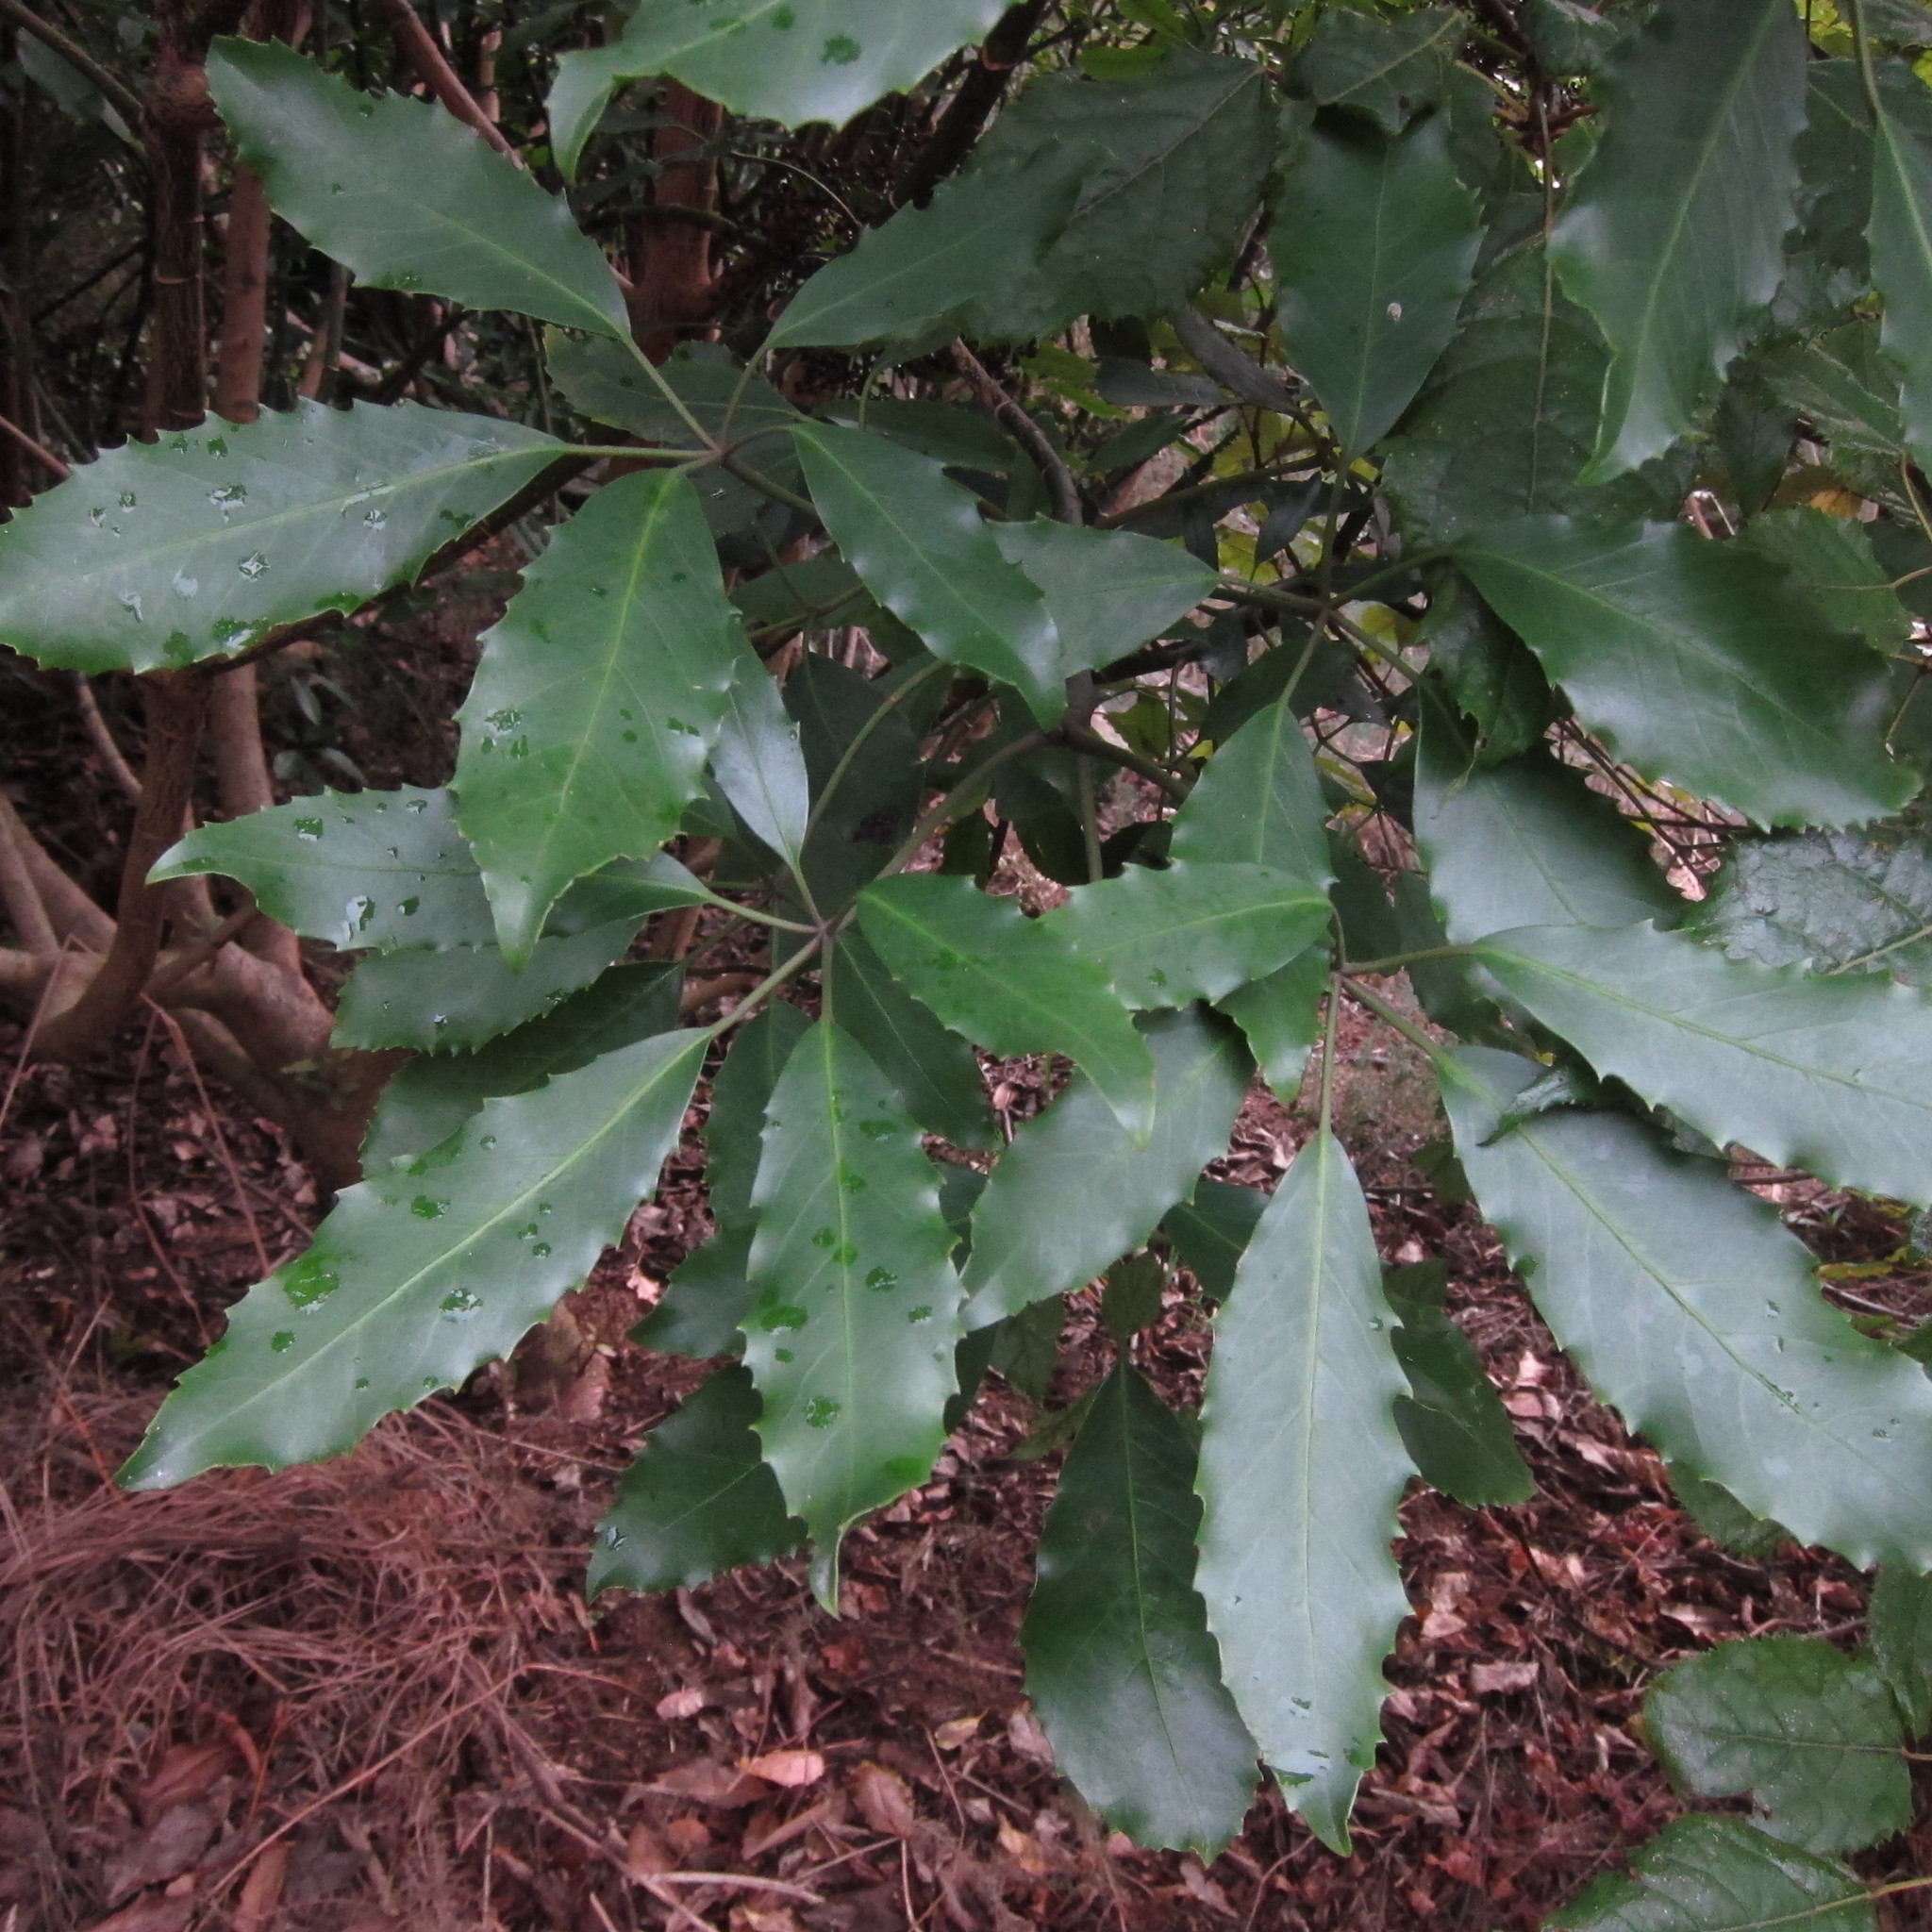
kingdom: Plantae
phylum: Tracheophyta
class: Magnoliopsida
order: Apiales
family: Araliaceae
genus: Neopanax
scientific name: Neopanax arboreus
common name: Five-fingers
